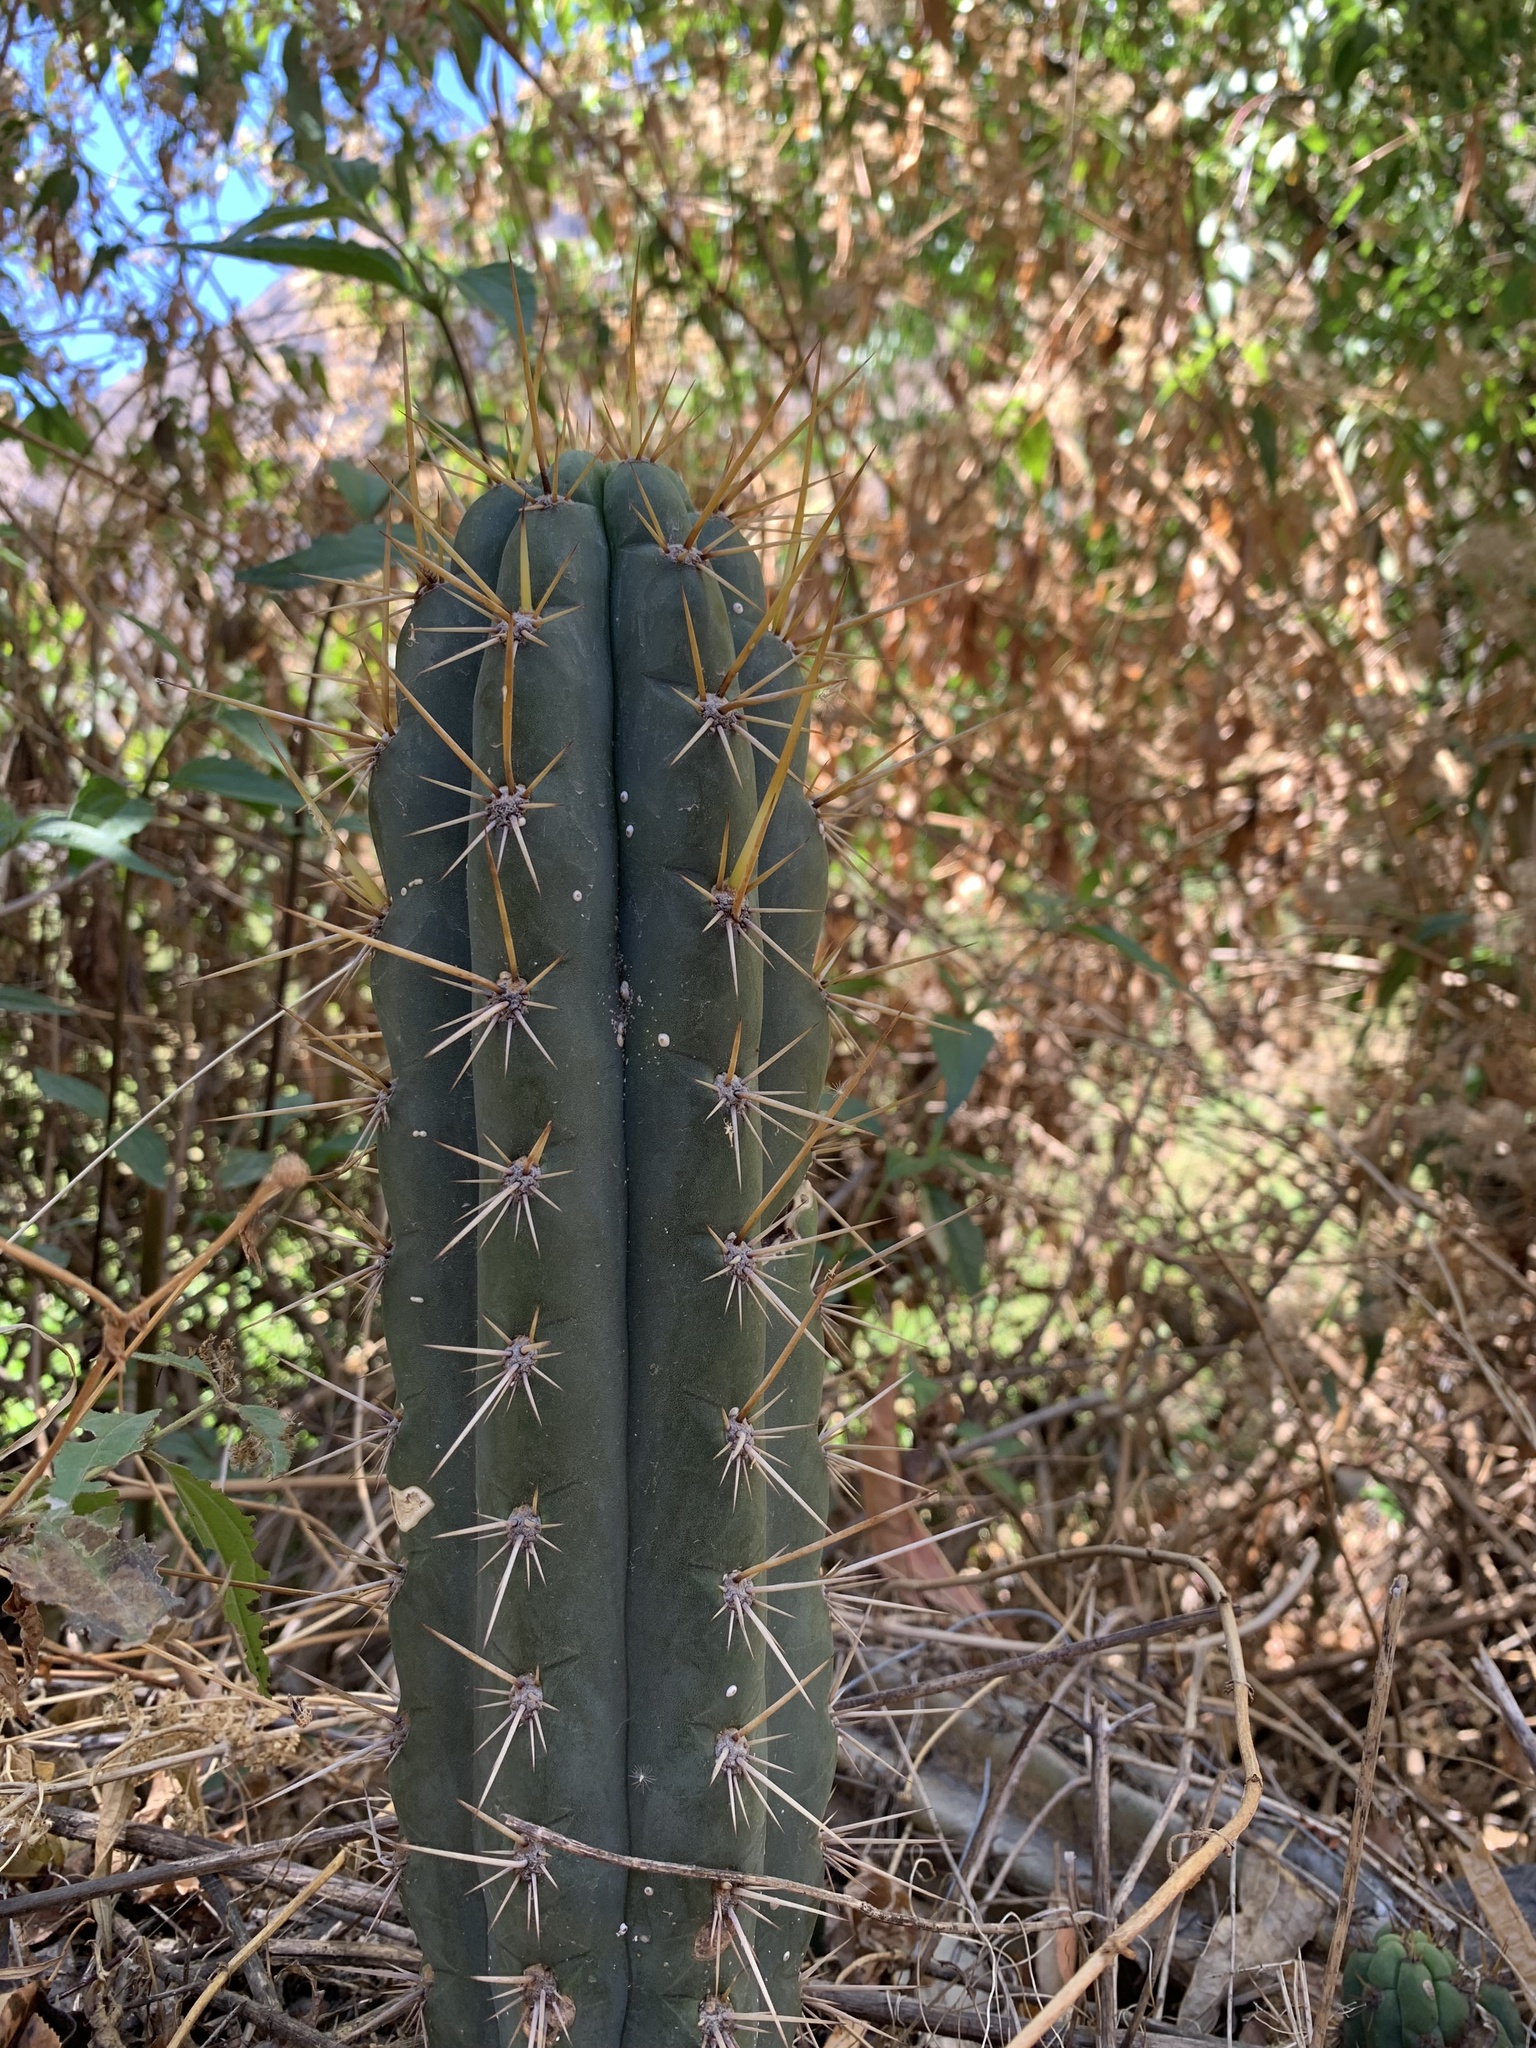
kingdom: Plantae
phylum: Tracheophyta
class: Magnoliopsida
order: Caryophyllales
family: Cactaceae
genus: Trichocereus
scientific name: Trichocereus cuzcoensis
